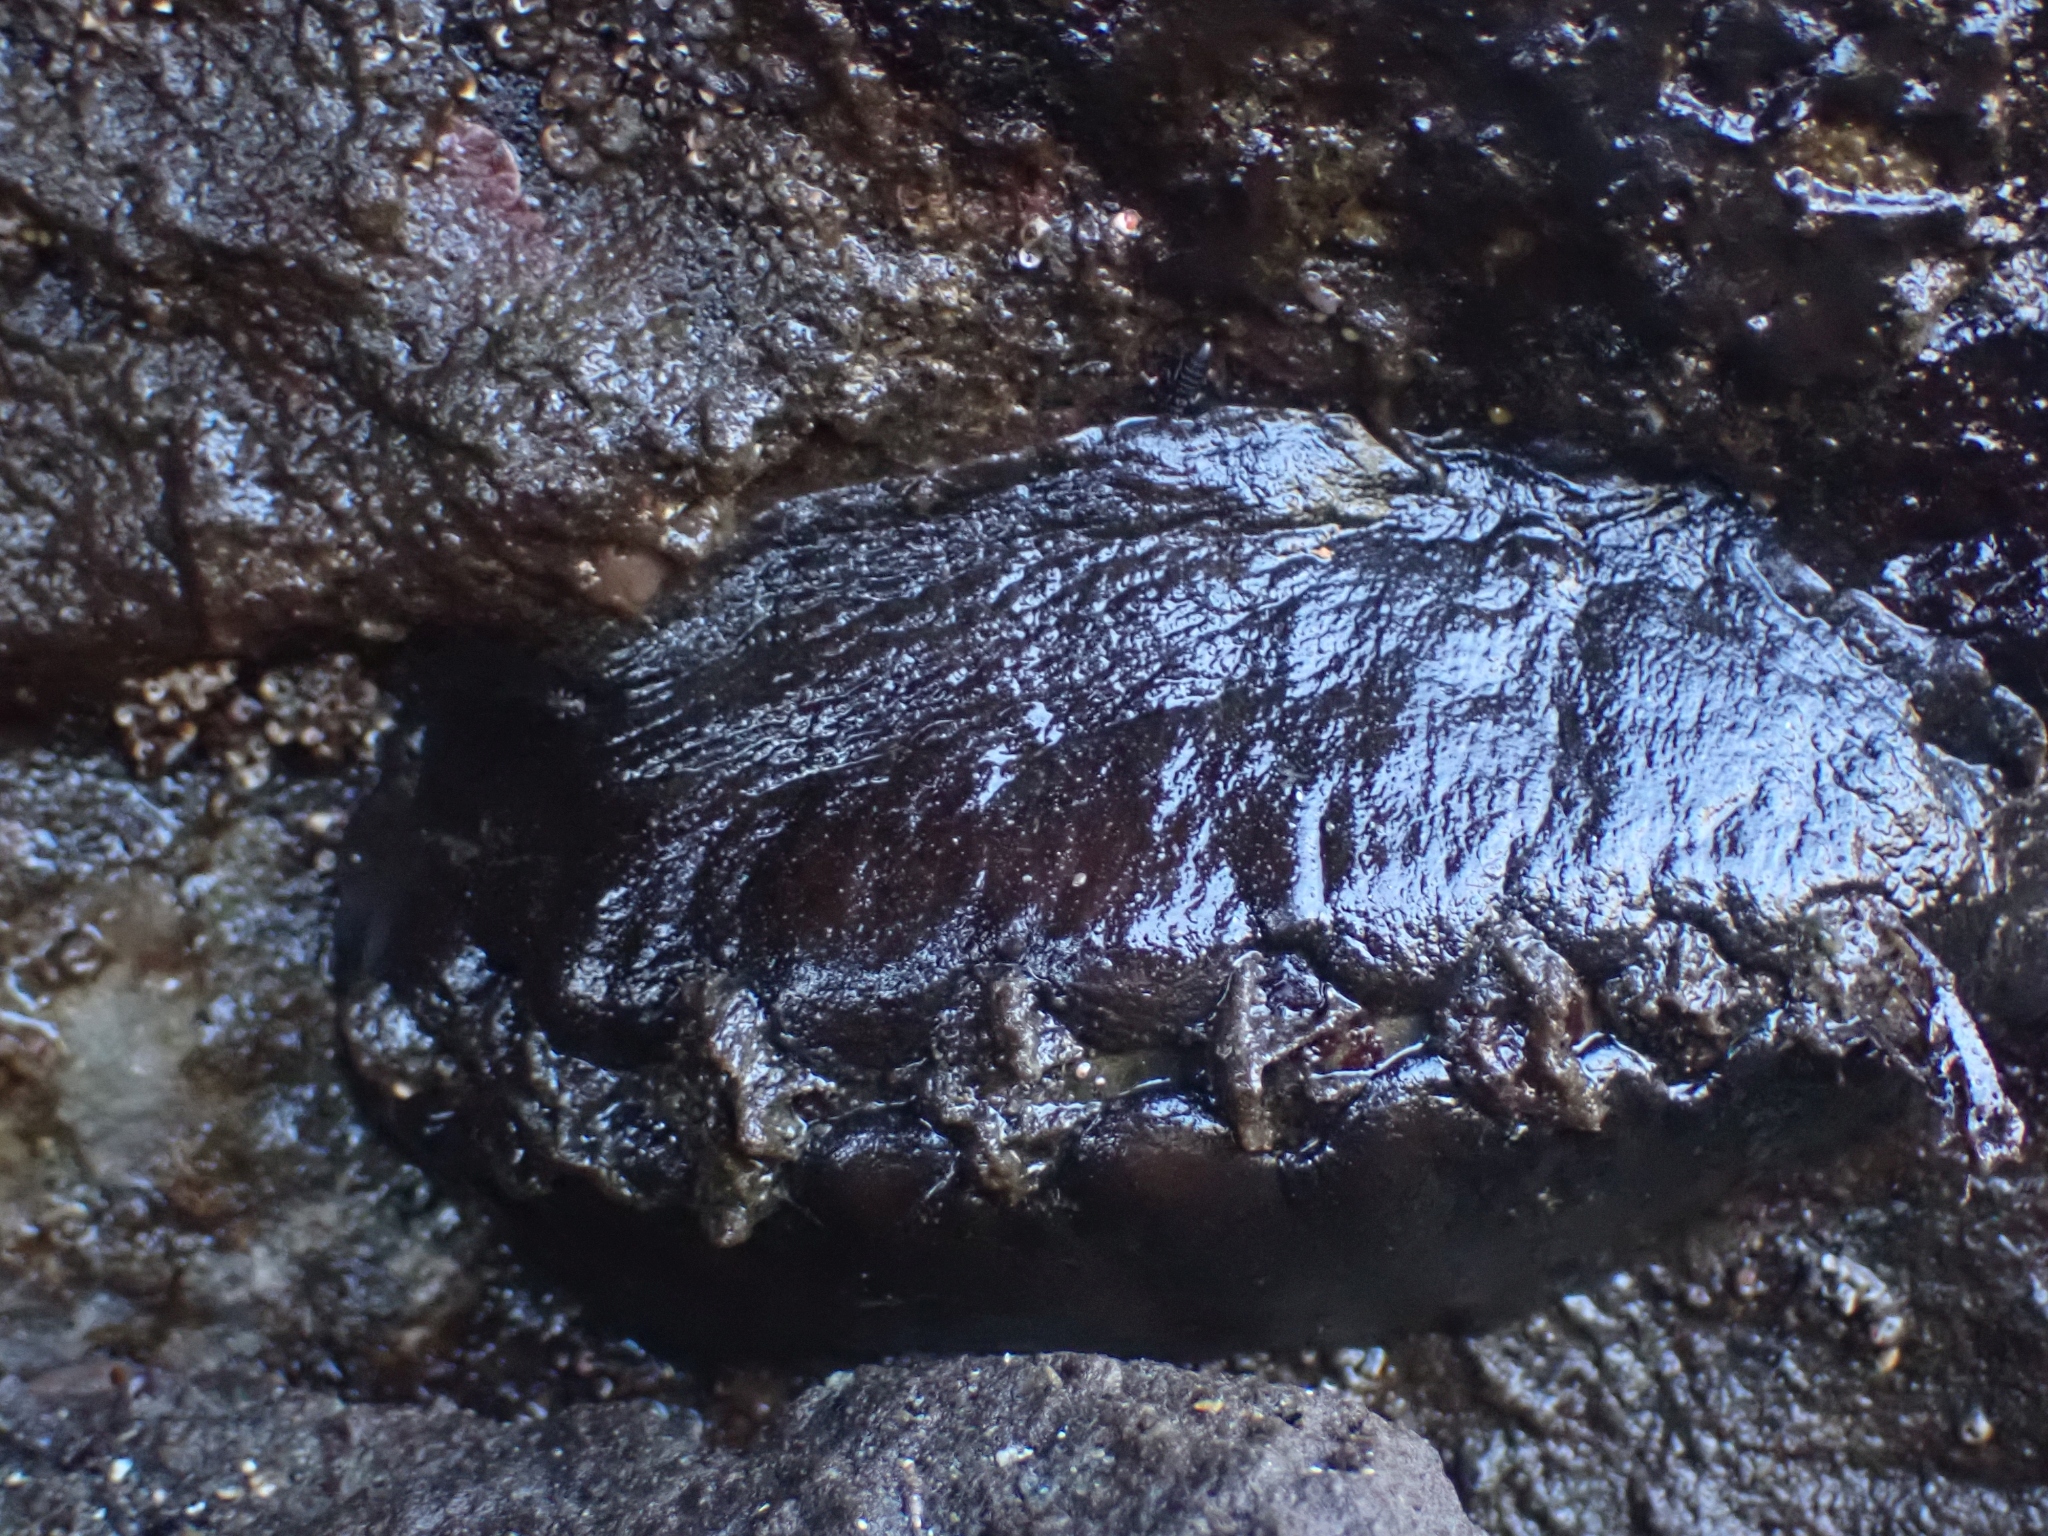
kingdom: Animalia
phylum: Mollusca
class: Polyplacophora
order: Chitonida
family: Mopaliidae
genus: Katharina
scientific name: Katharina tunicata
